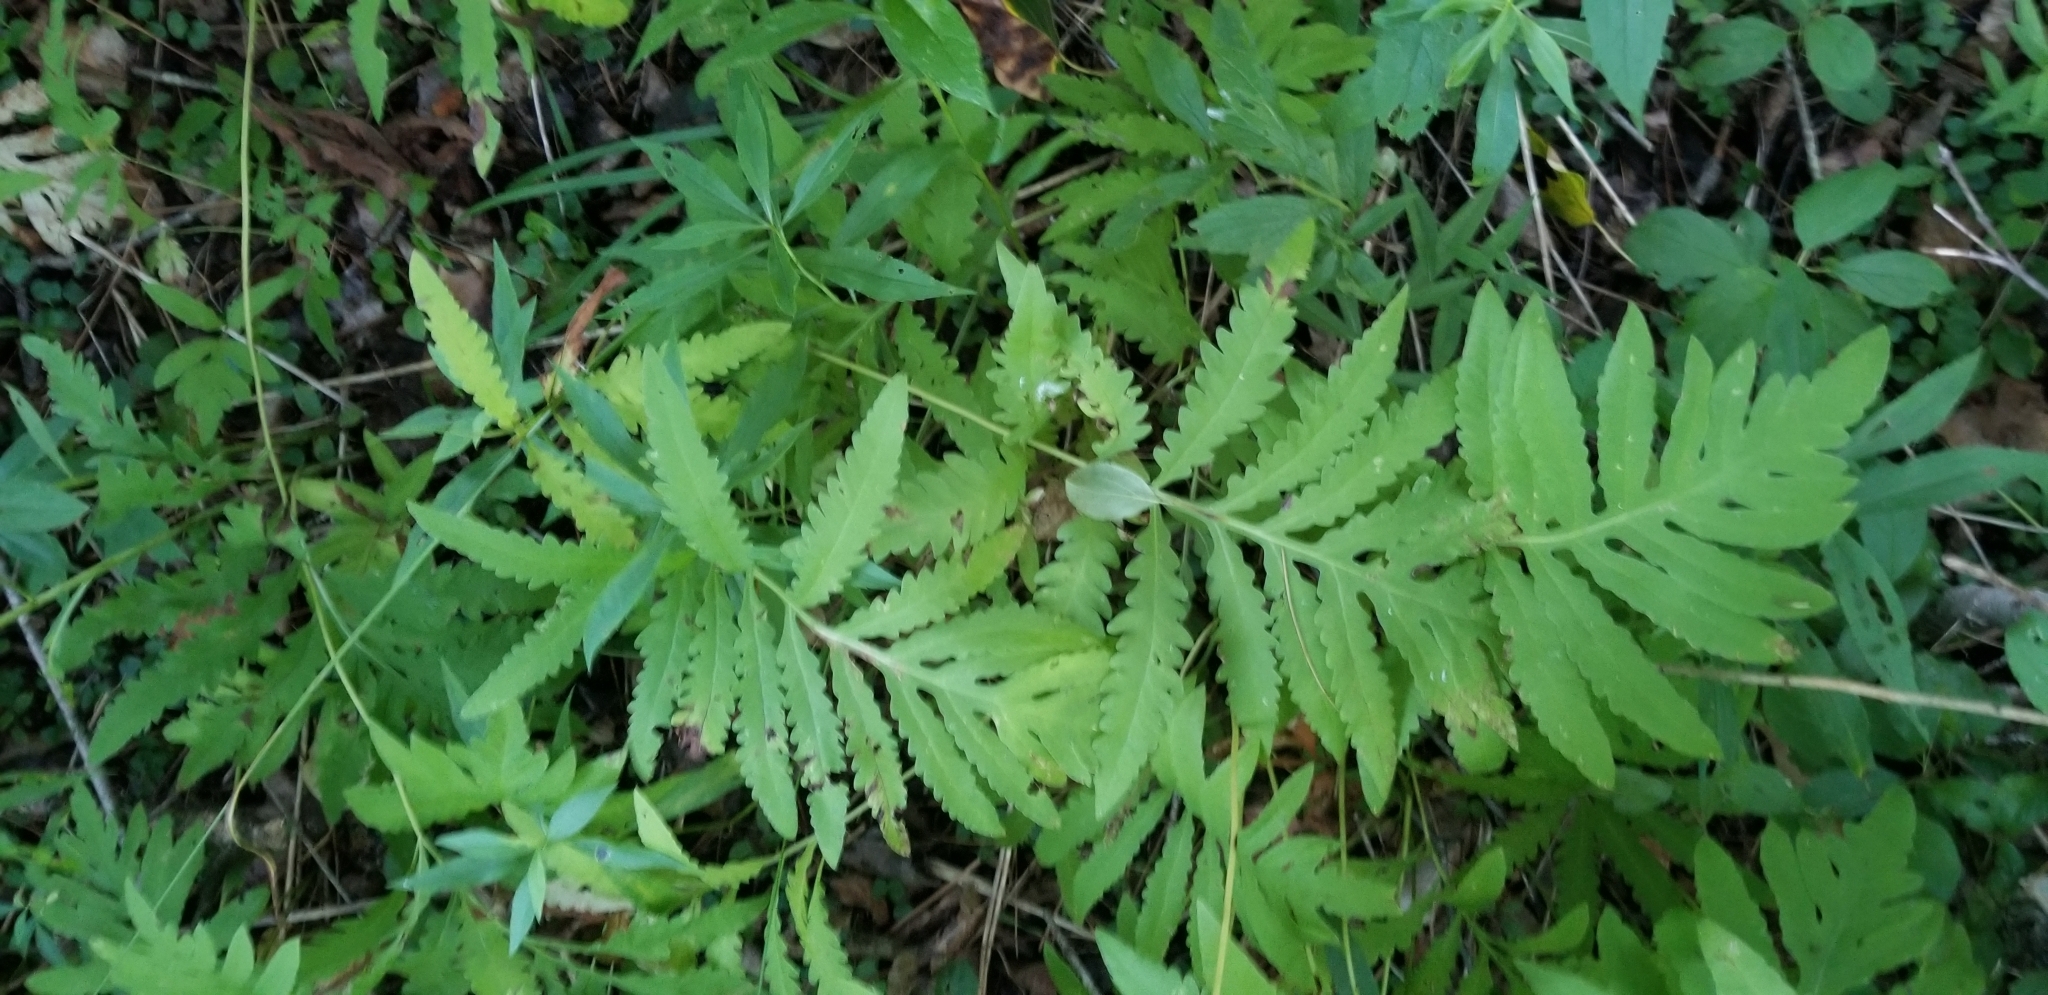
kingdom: Plantae
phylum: Tracheophyta
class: Polypodiopsida
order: Polypodiales
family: Onocleaceae
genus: Onoclea
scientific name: Onoclea sensibilis
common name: Sensitive fern
